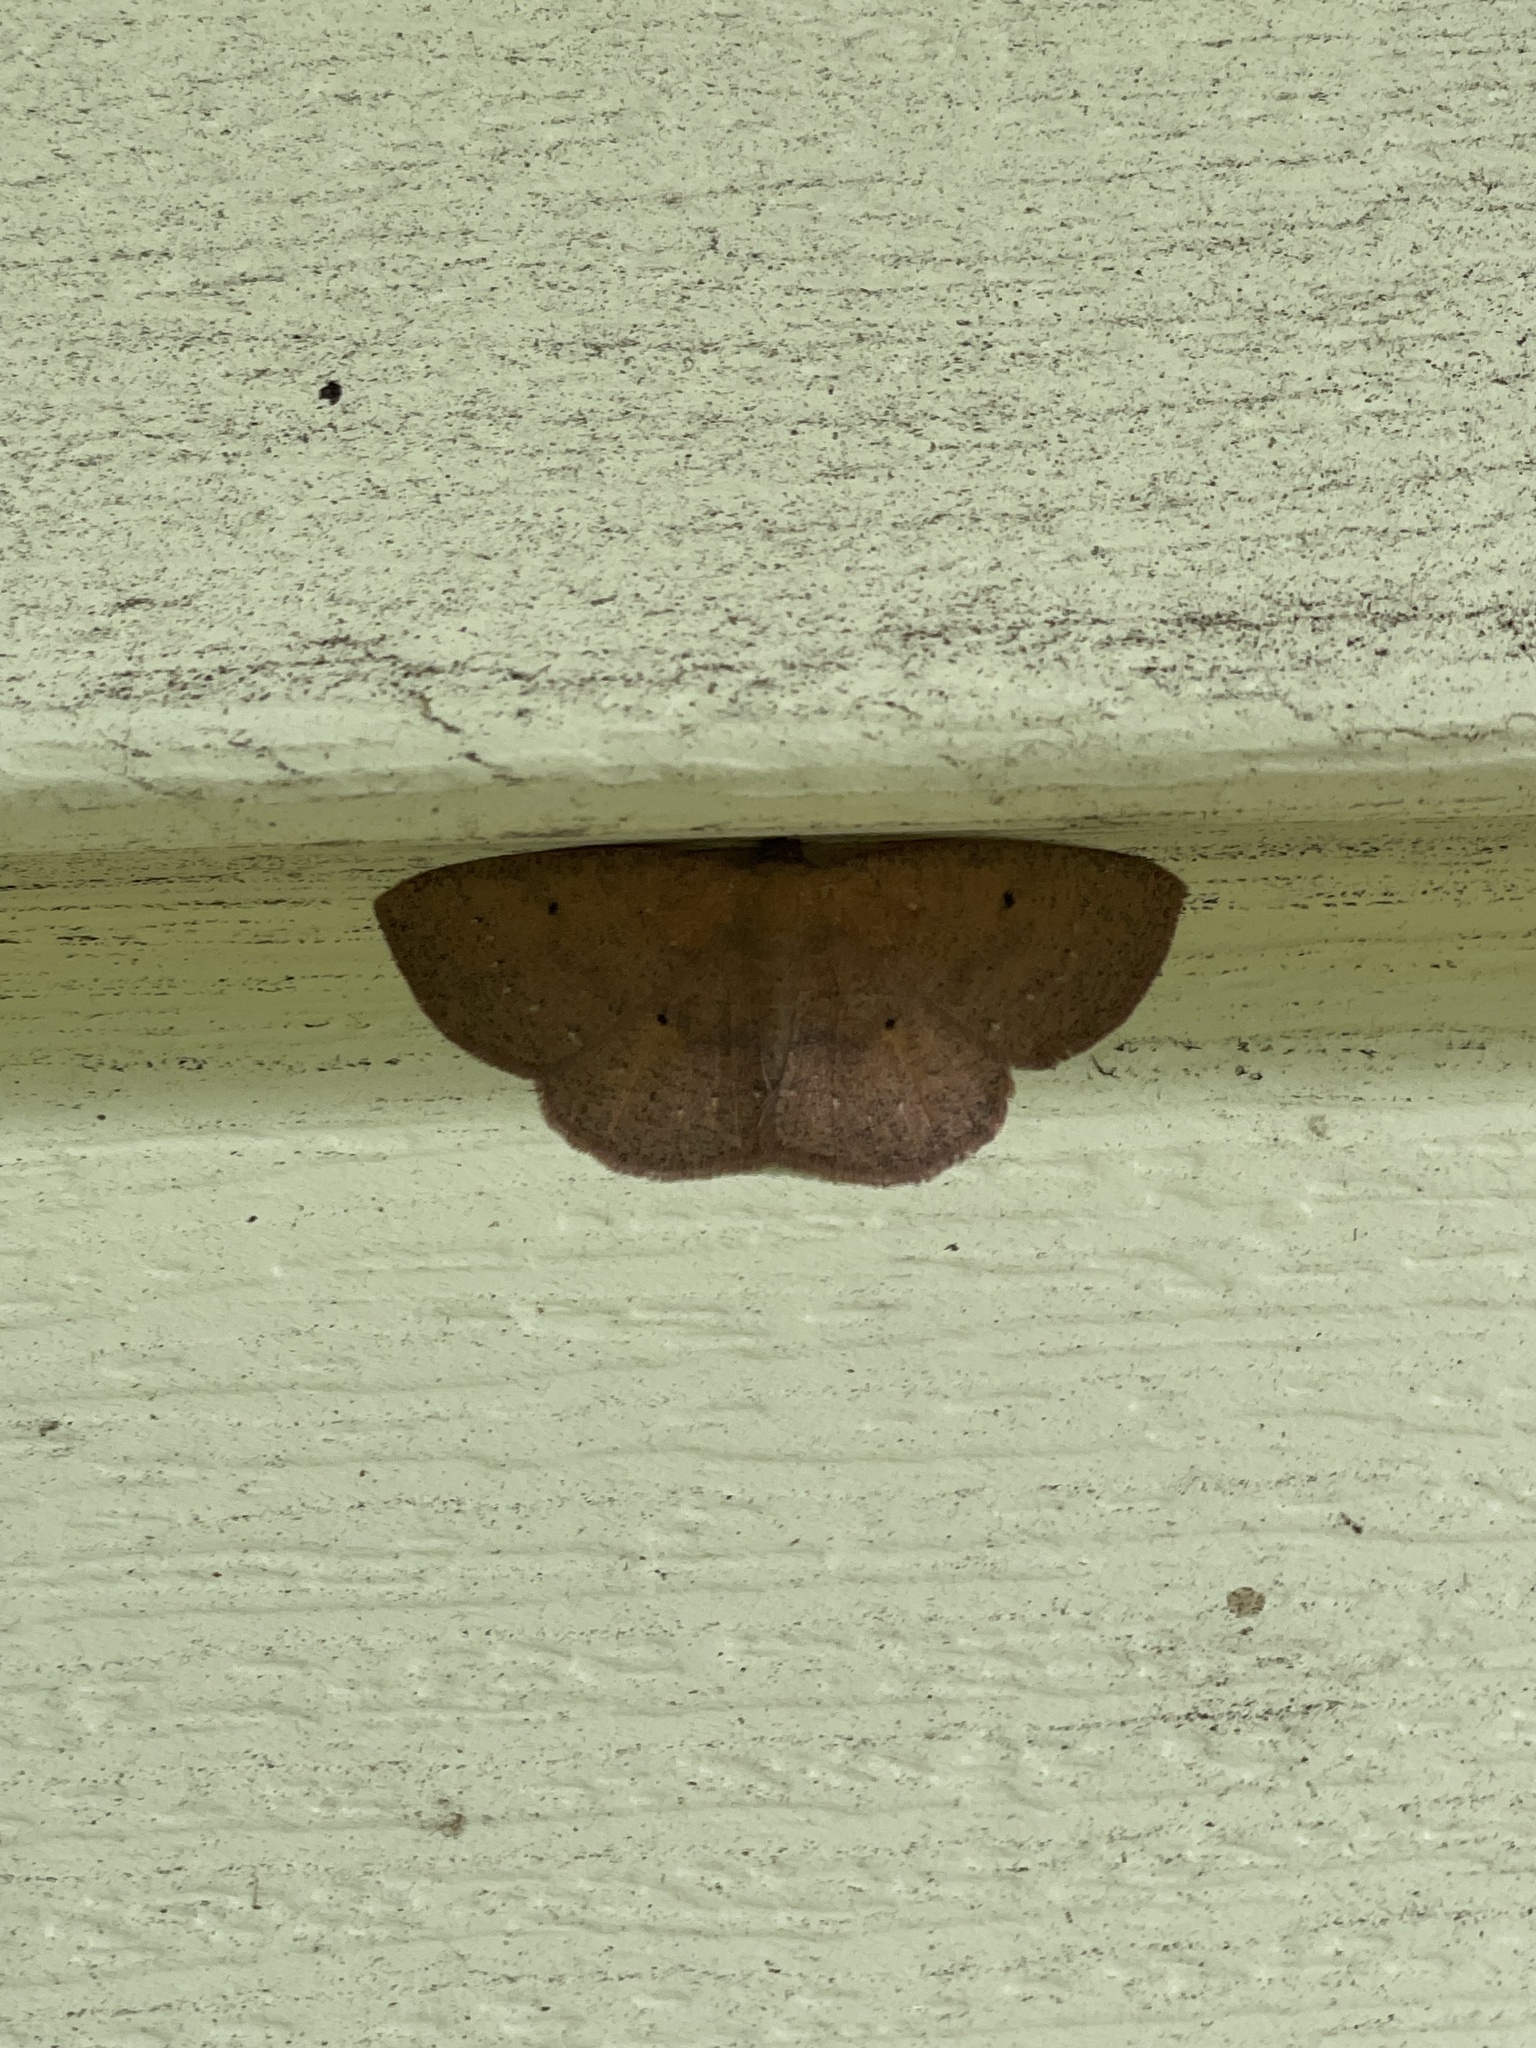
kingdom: Animalia
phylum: Arthropoda
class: Insecta
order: Lepidoptera
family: Geometridae
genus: Ilexia
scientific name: Ilexia intractata
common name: Black-dotted ruddy moth
